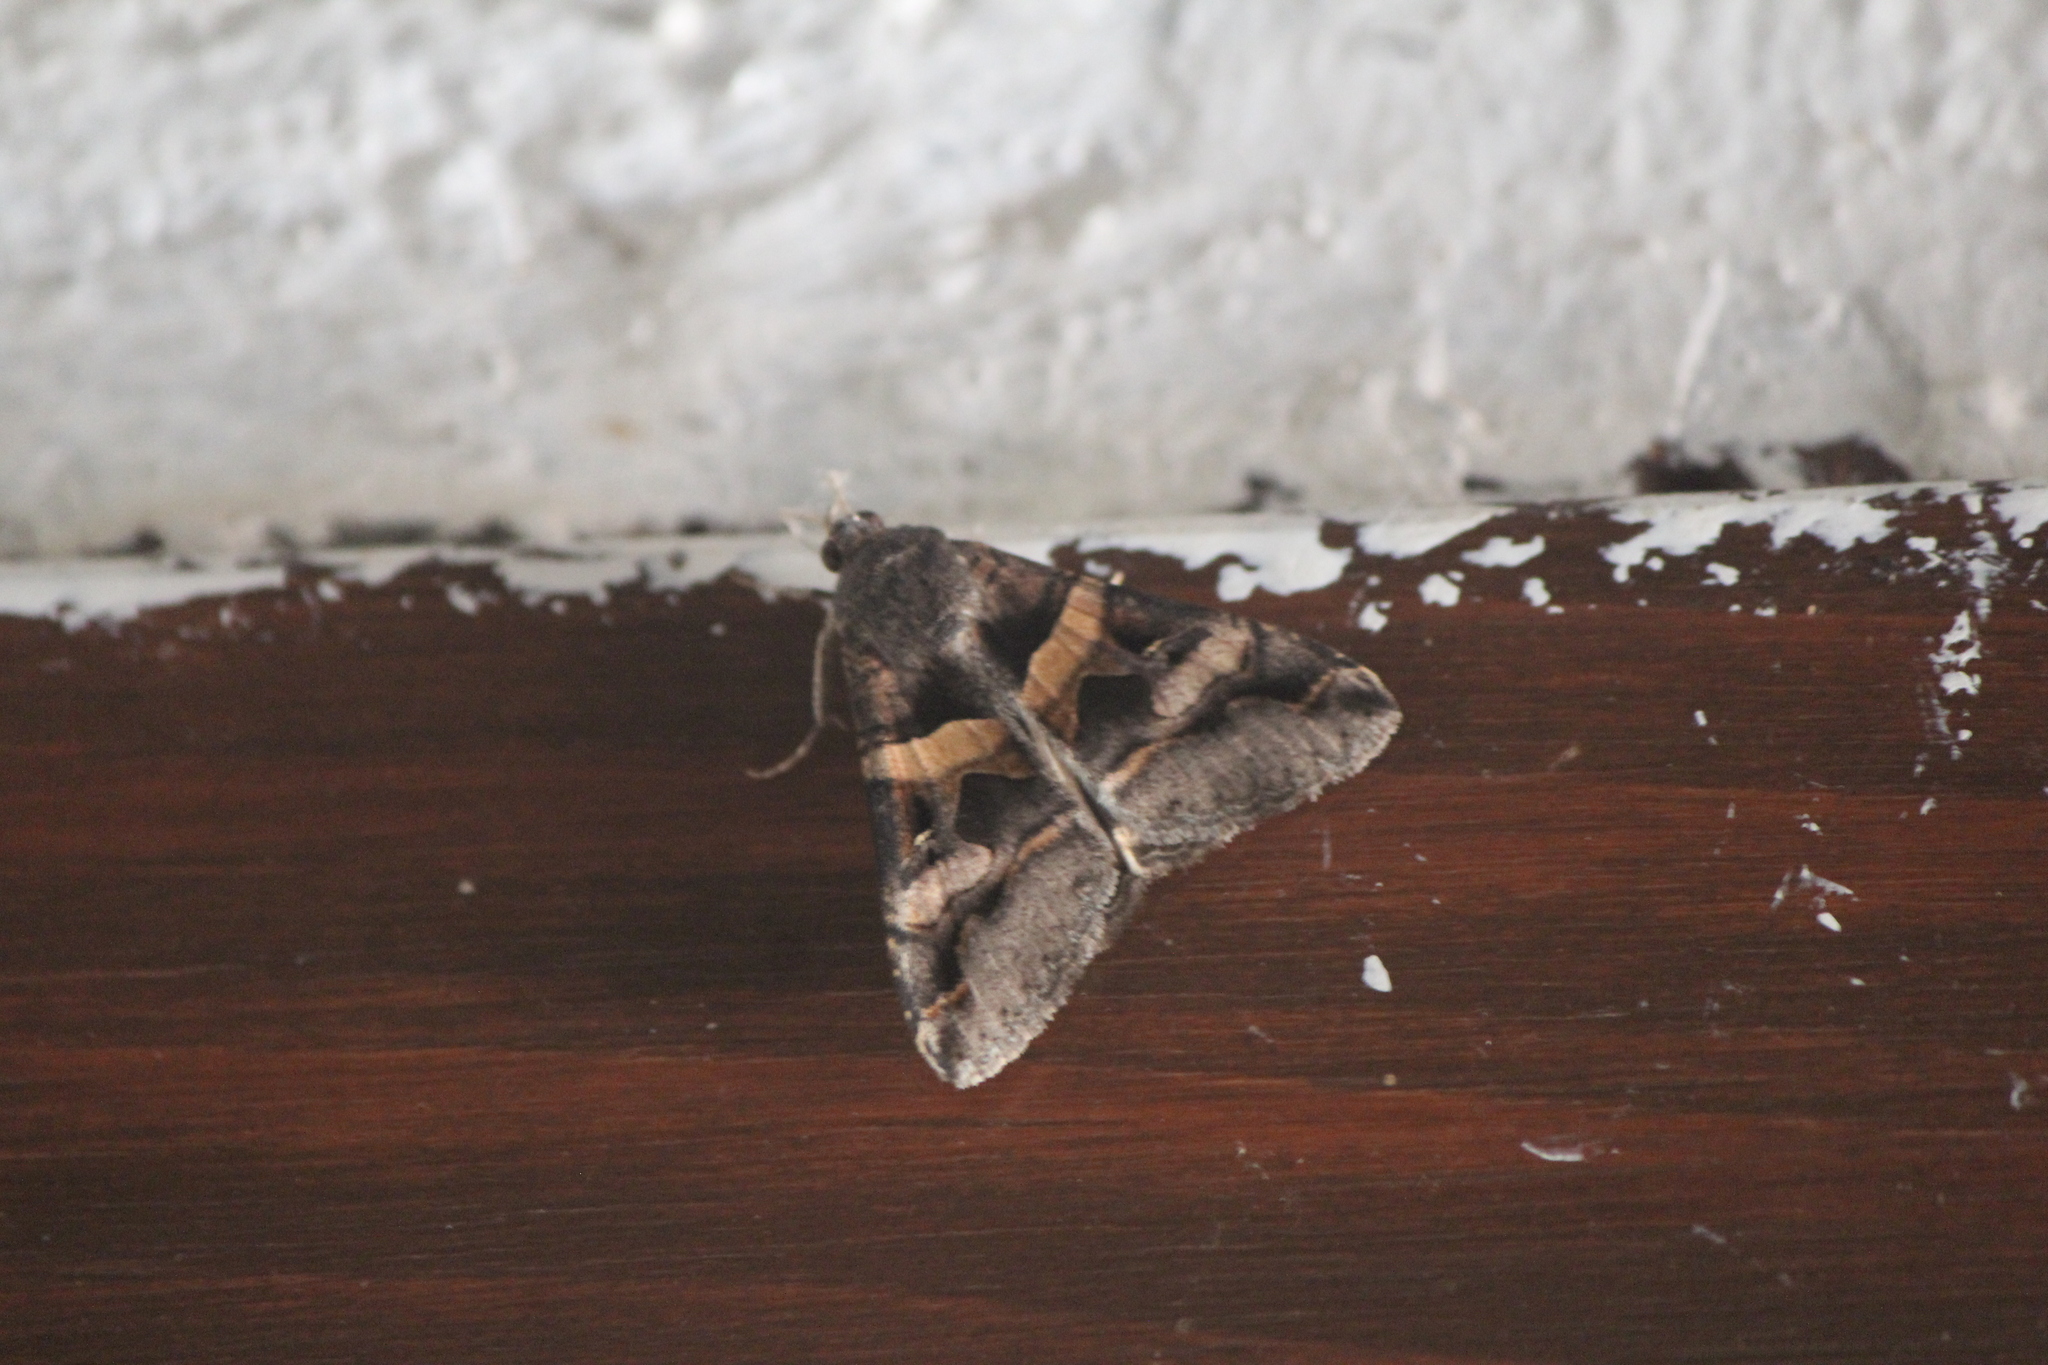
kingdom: Animalia
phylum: Arthropoda
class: Insecta
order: Lepidoptera
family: Erebidae
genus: Melipotis
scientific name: Melipotis perpendicularis
